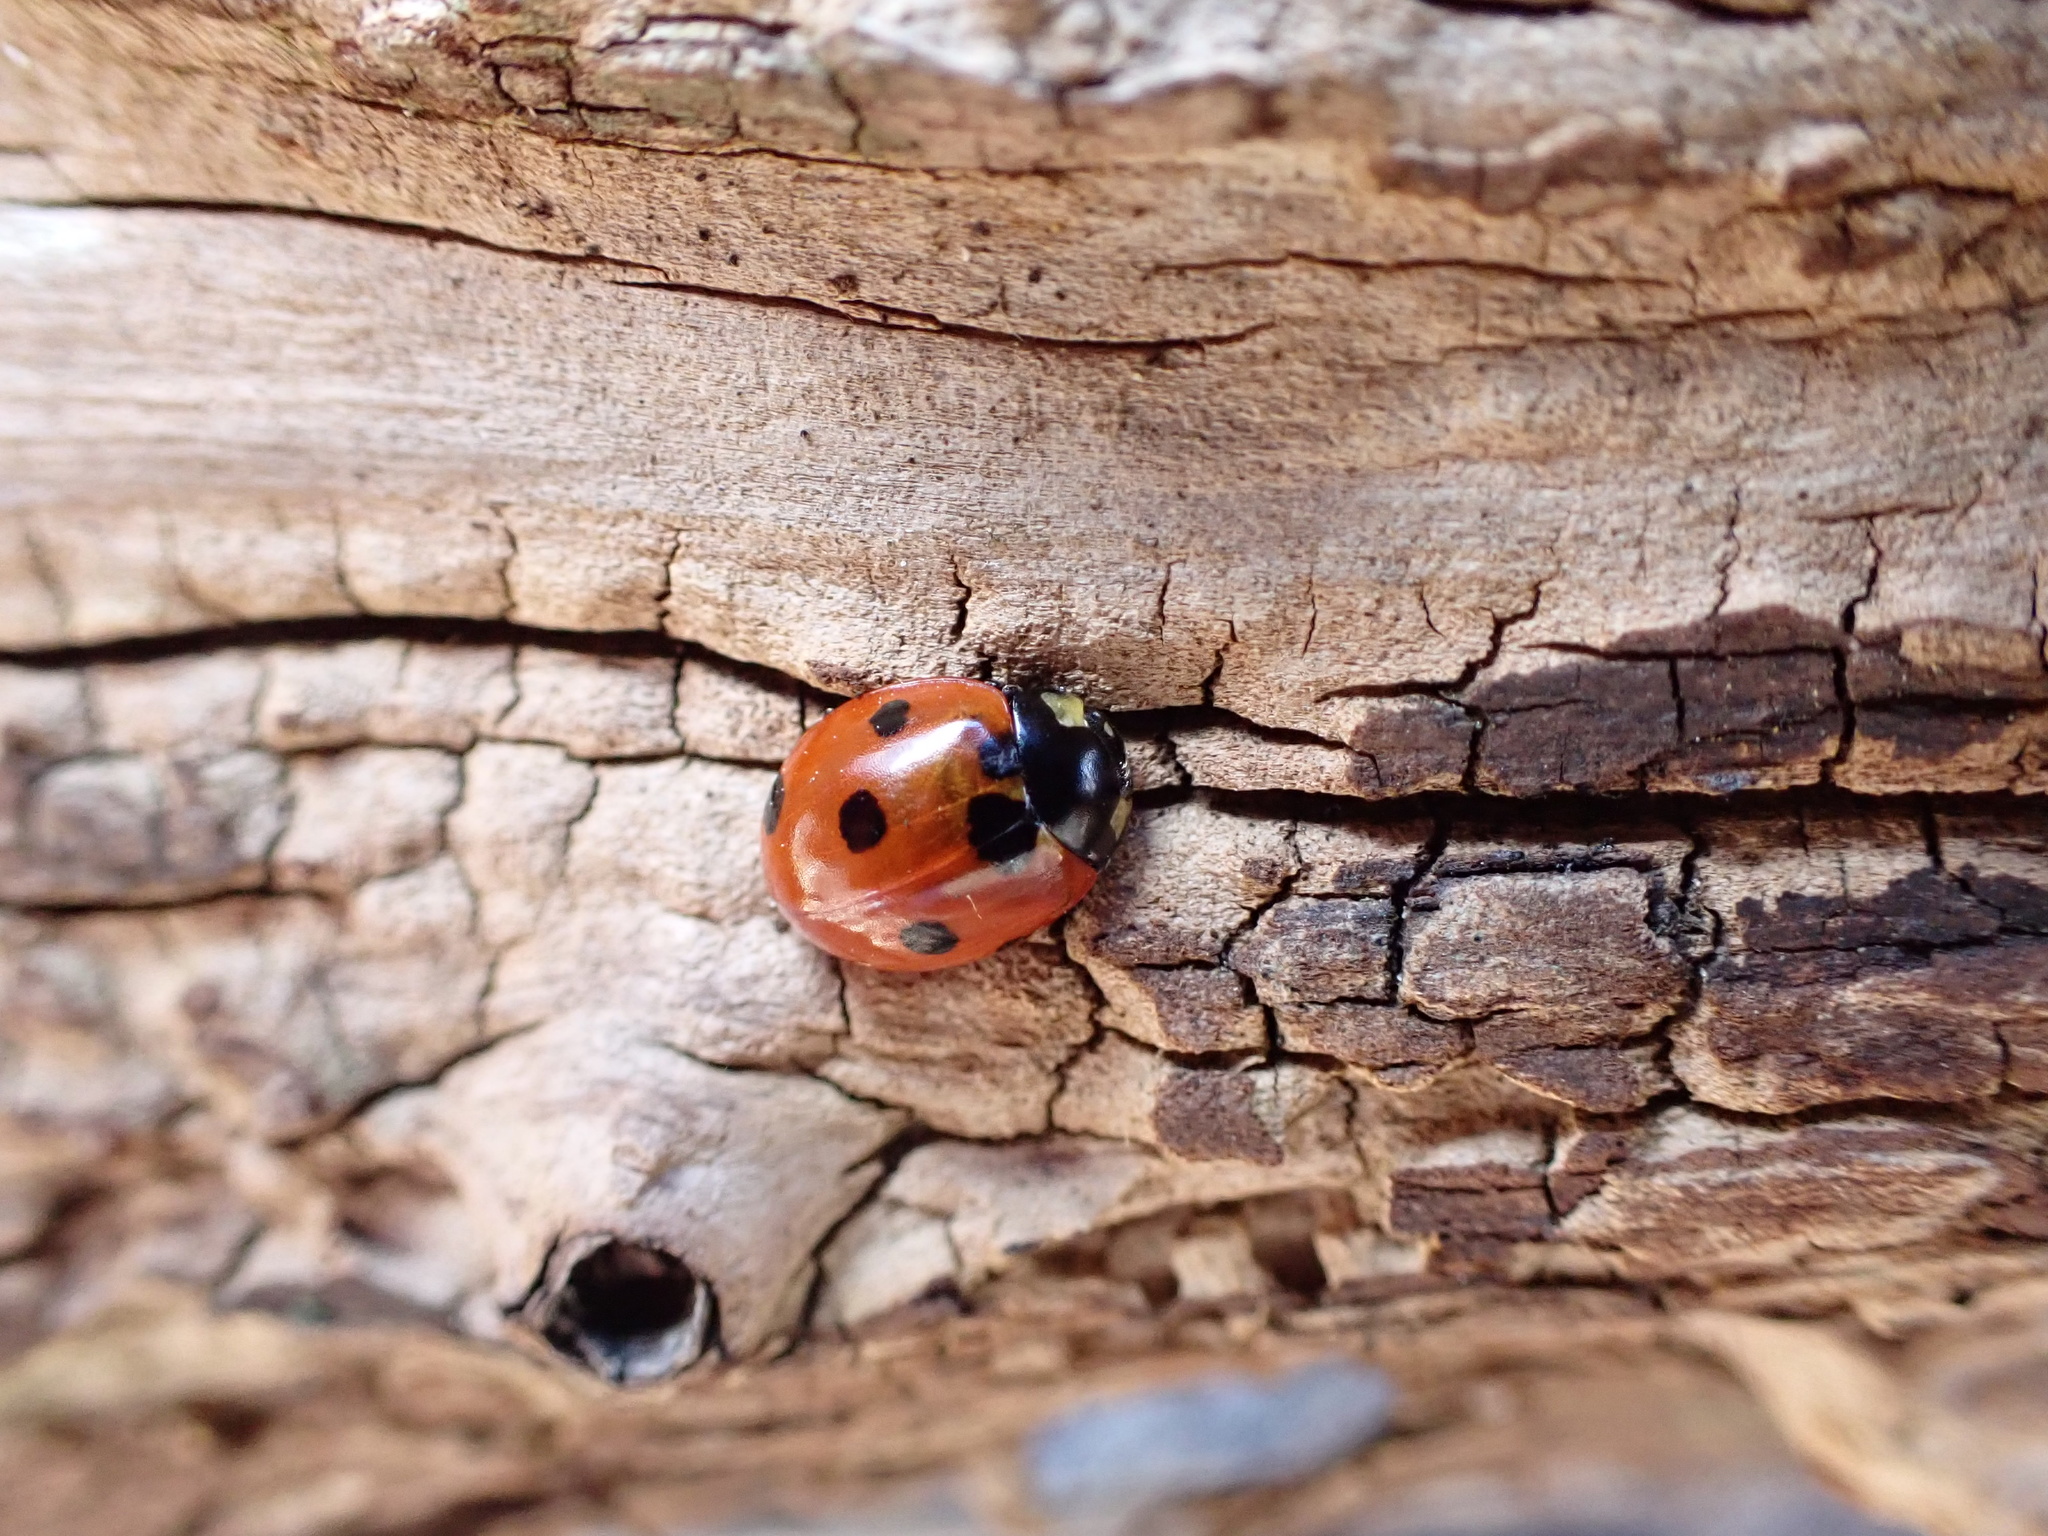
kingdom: Animalia
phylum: Arthropoda
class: Insecta
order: Coleoptera
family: Coccinellidae
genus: Coccinella
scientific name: Coccinella septempunctata
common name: Sevenspotted lady beetle
